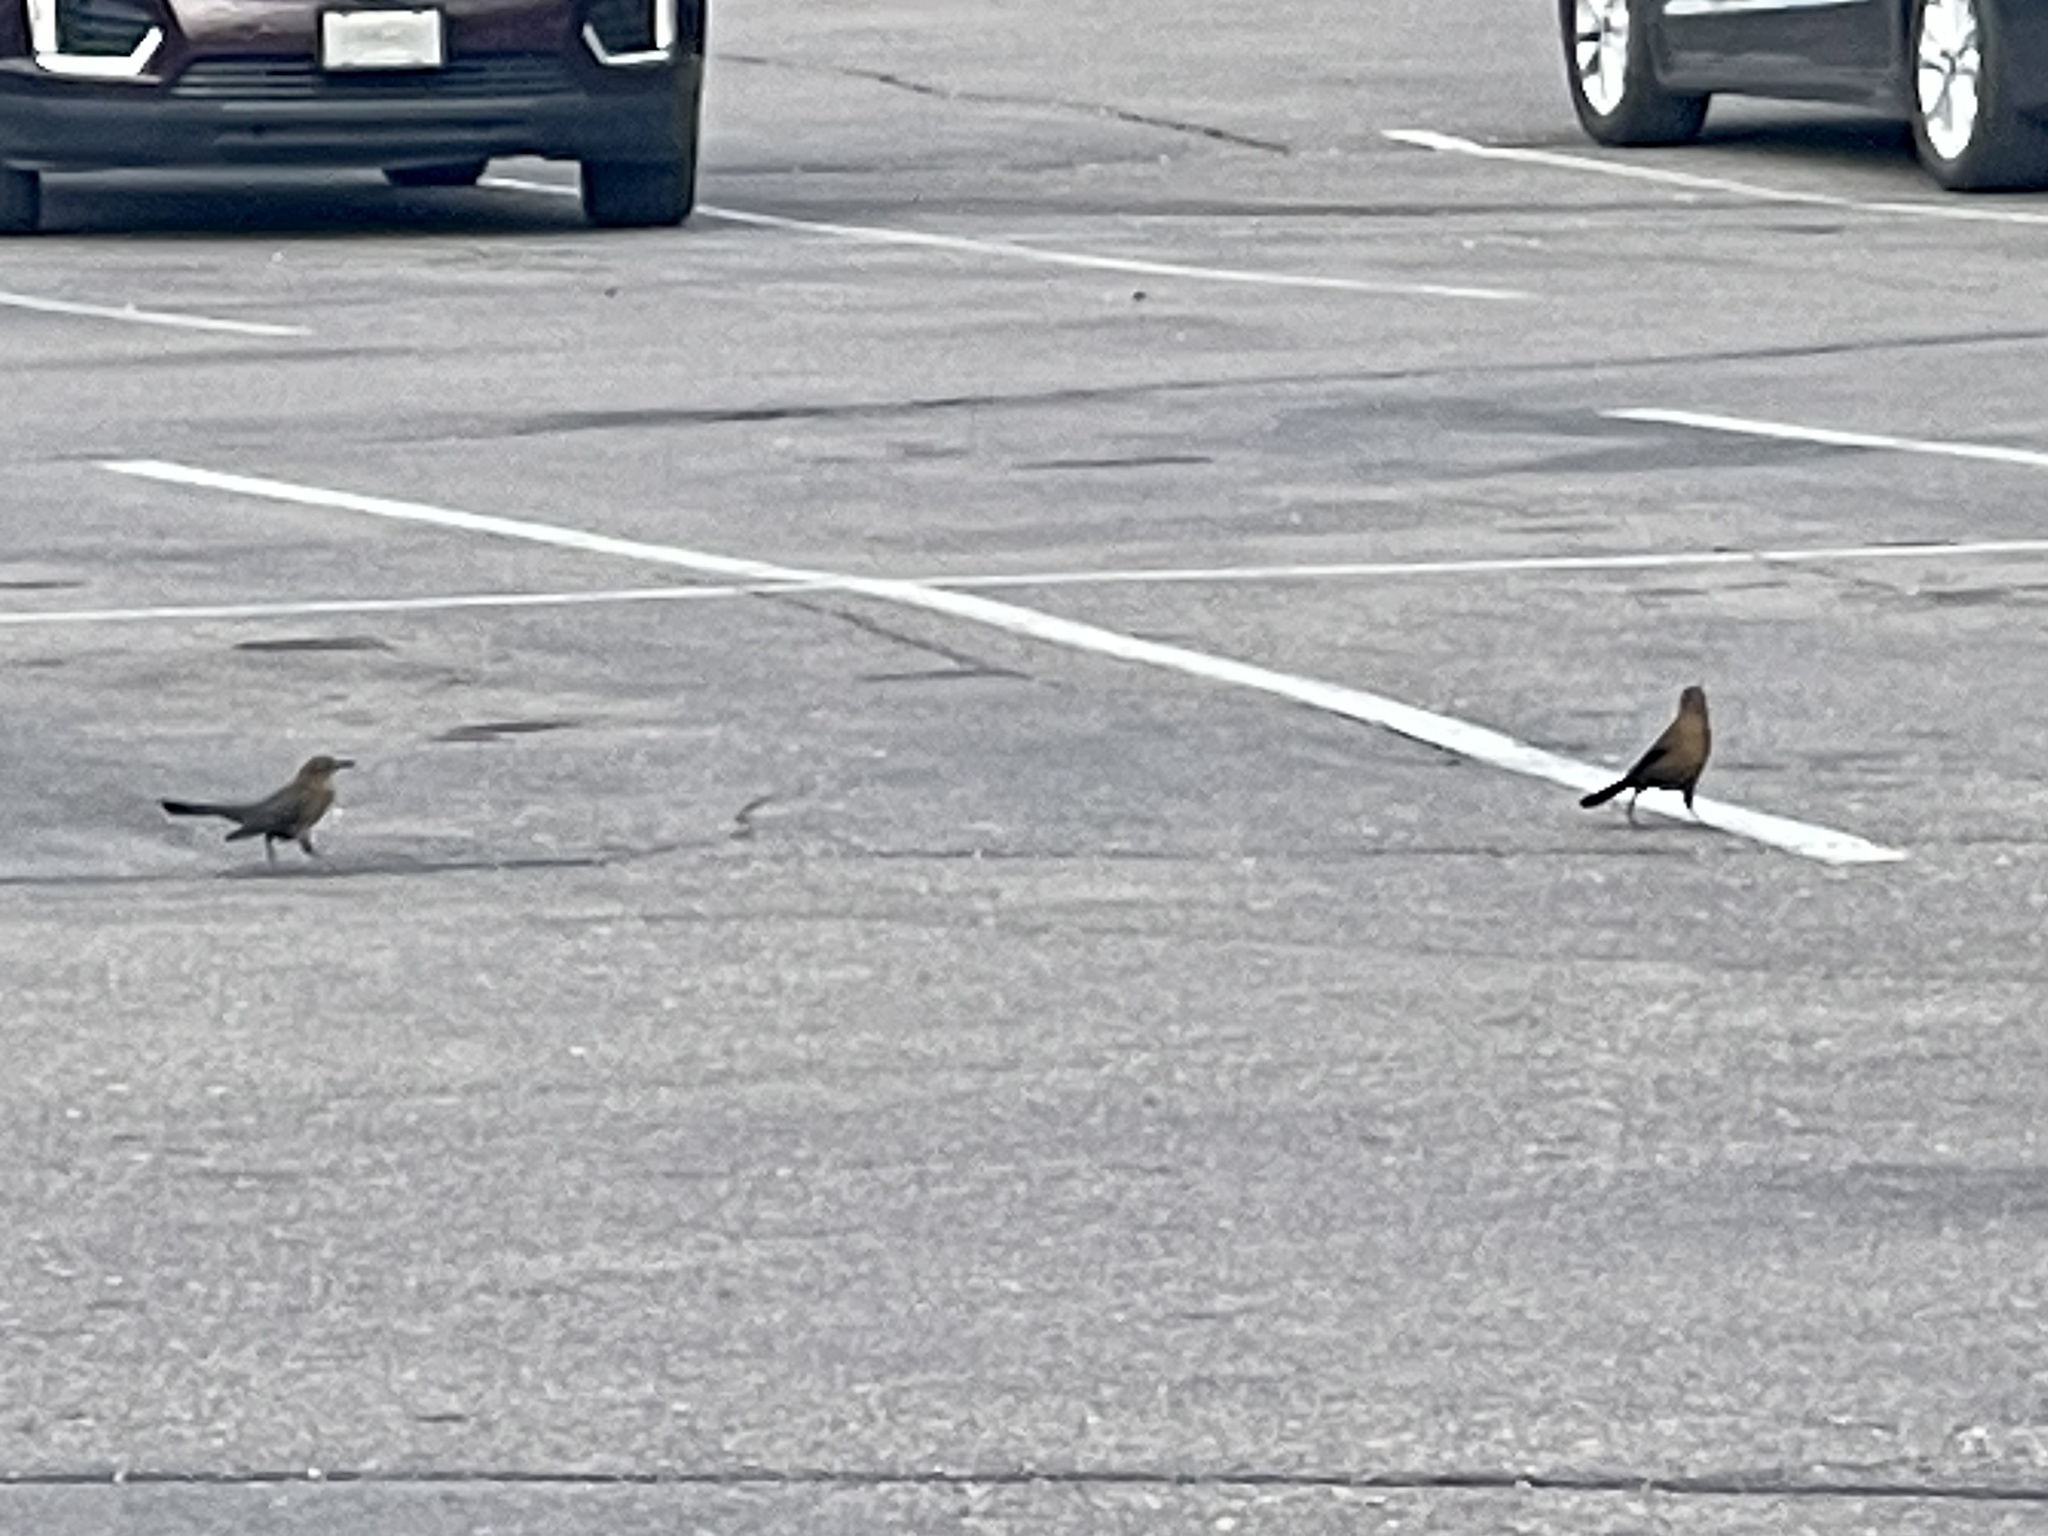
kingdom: Animalia
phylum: Chordata
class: Aves
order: Passeriformes
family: Icteridae
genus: Quiscalus
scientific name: Quiscalus mexicanus
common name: Great-tailed grackle
